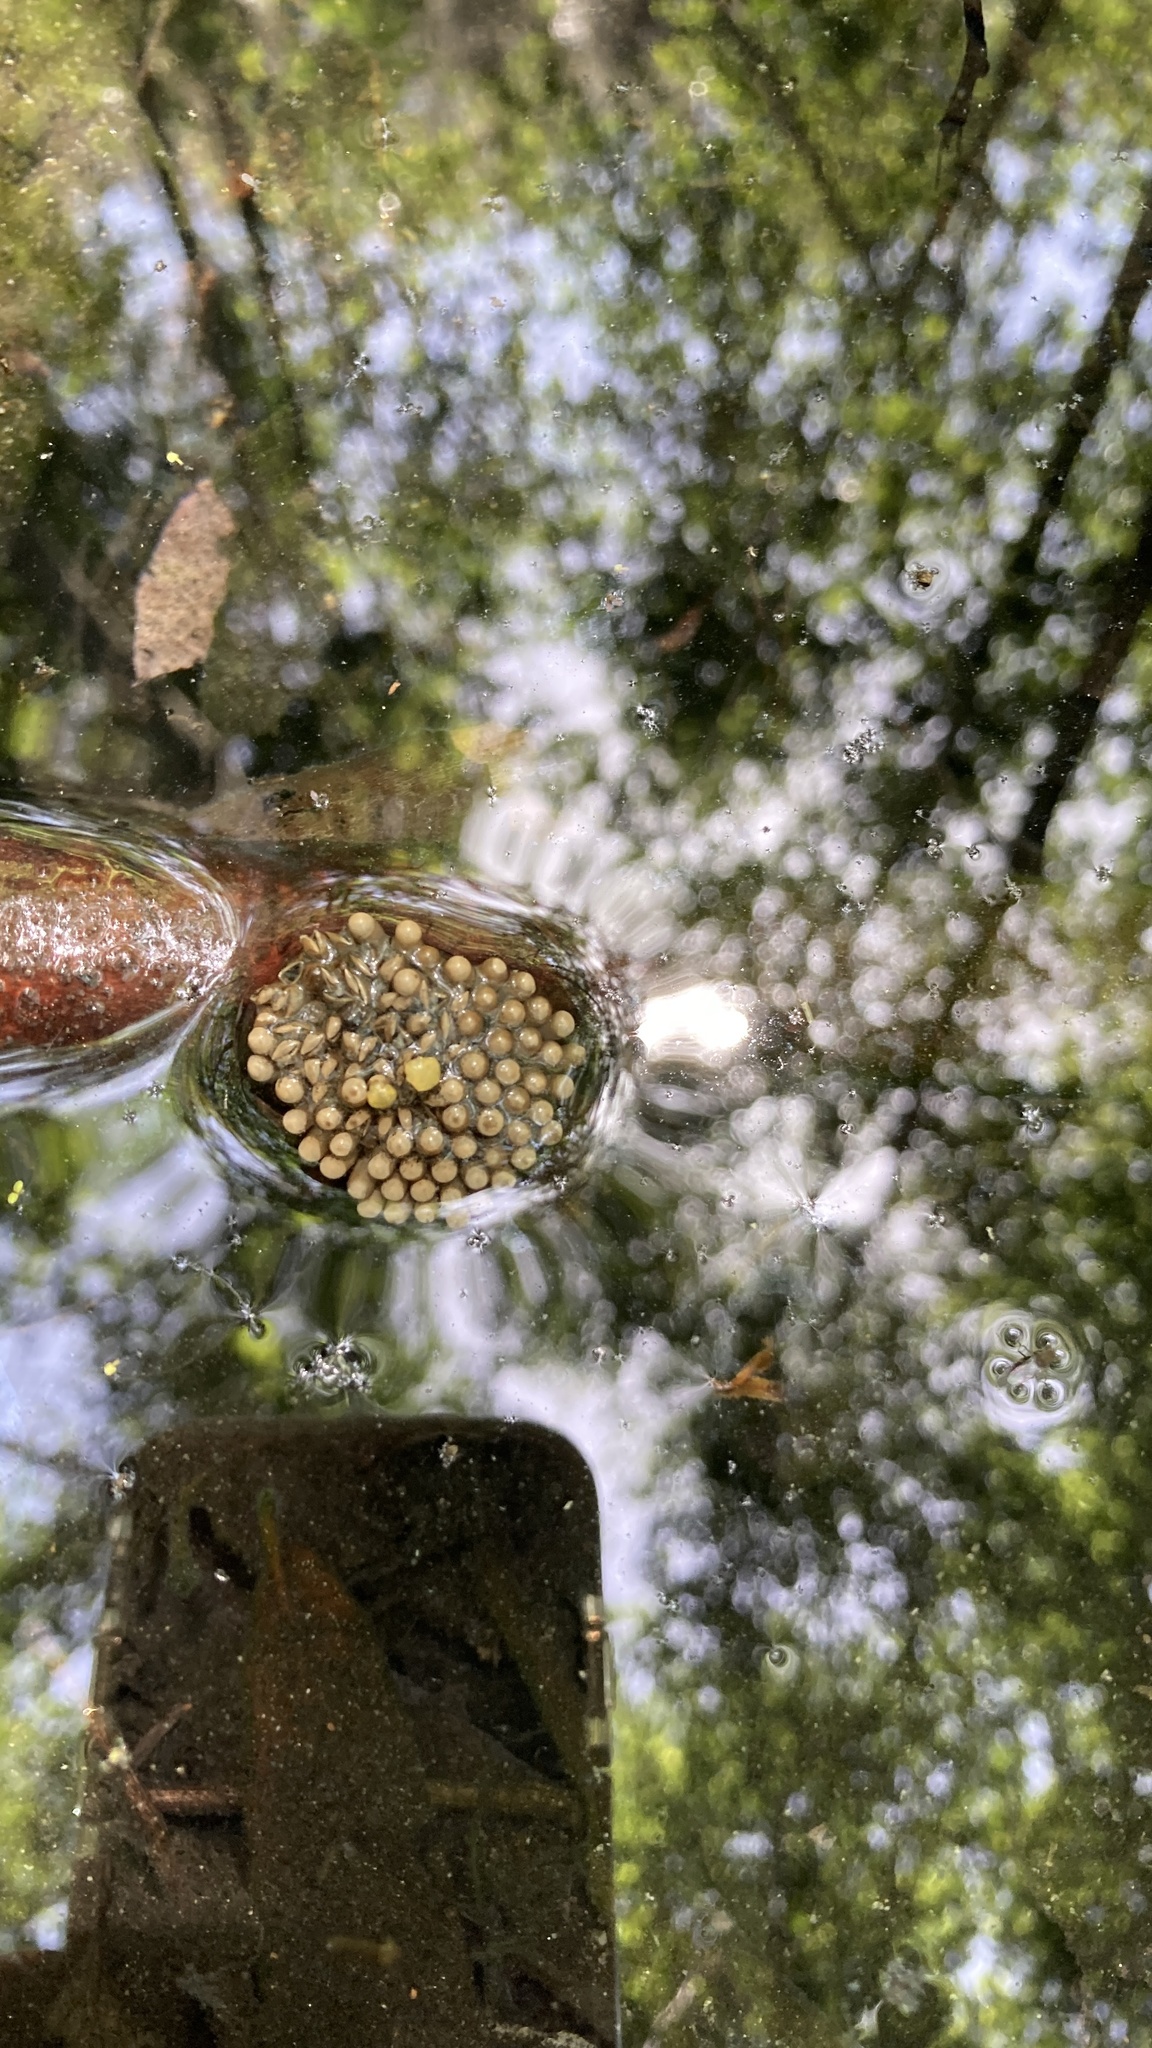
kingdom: Animalia
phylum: Arthropoda
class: Insecta
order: Hemiptera
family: Belostomatidae
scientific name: Belostomatidae
